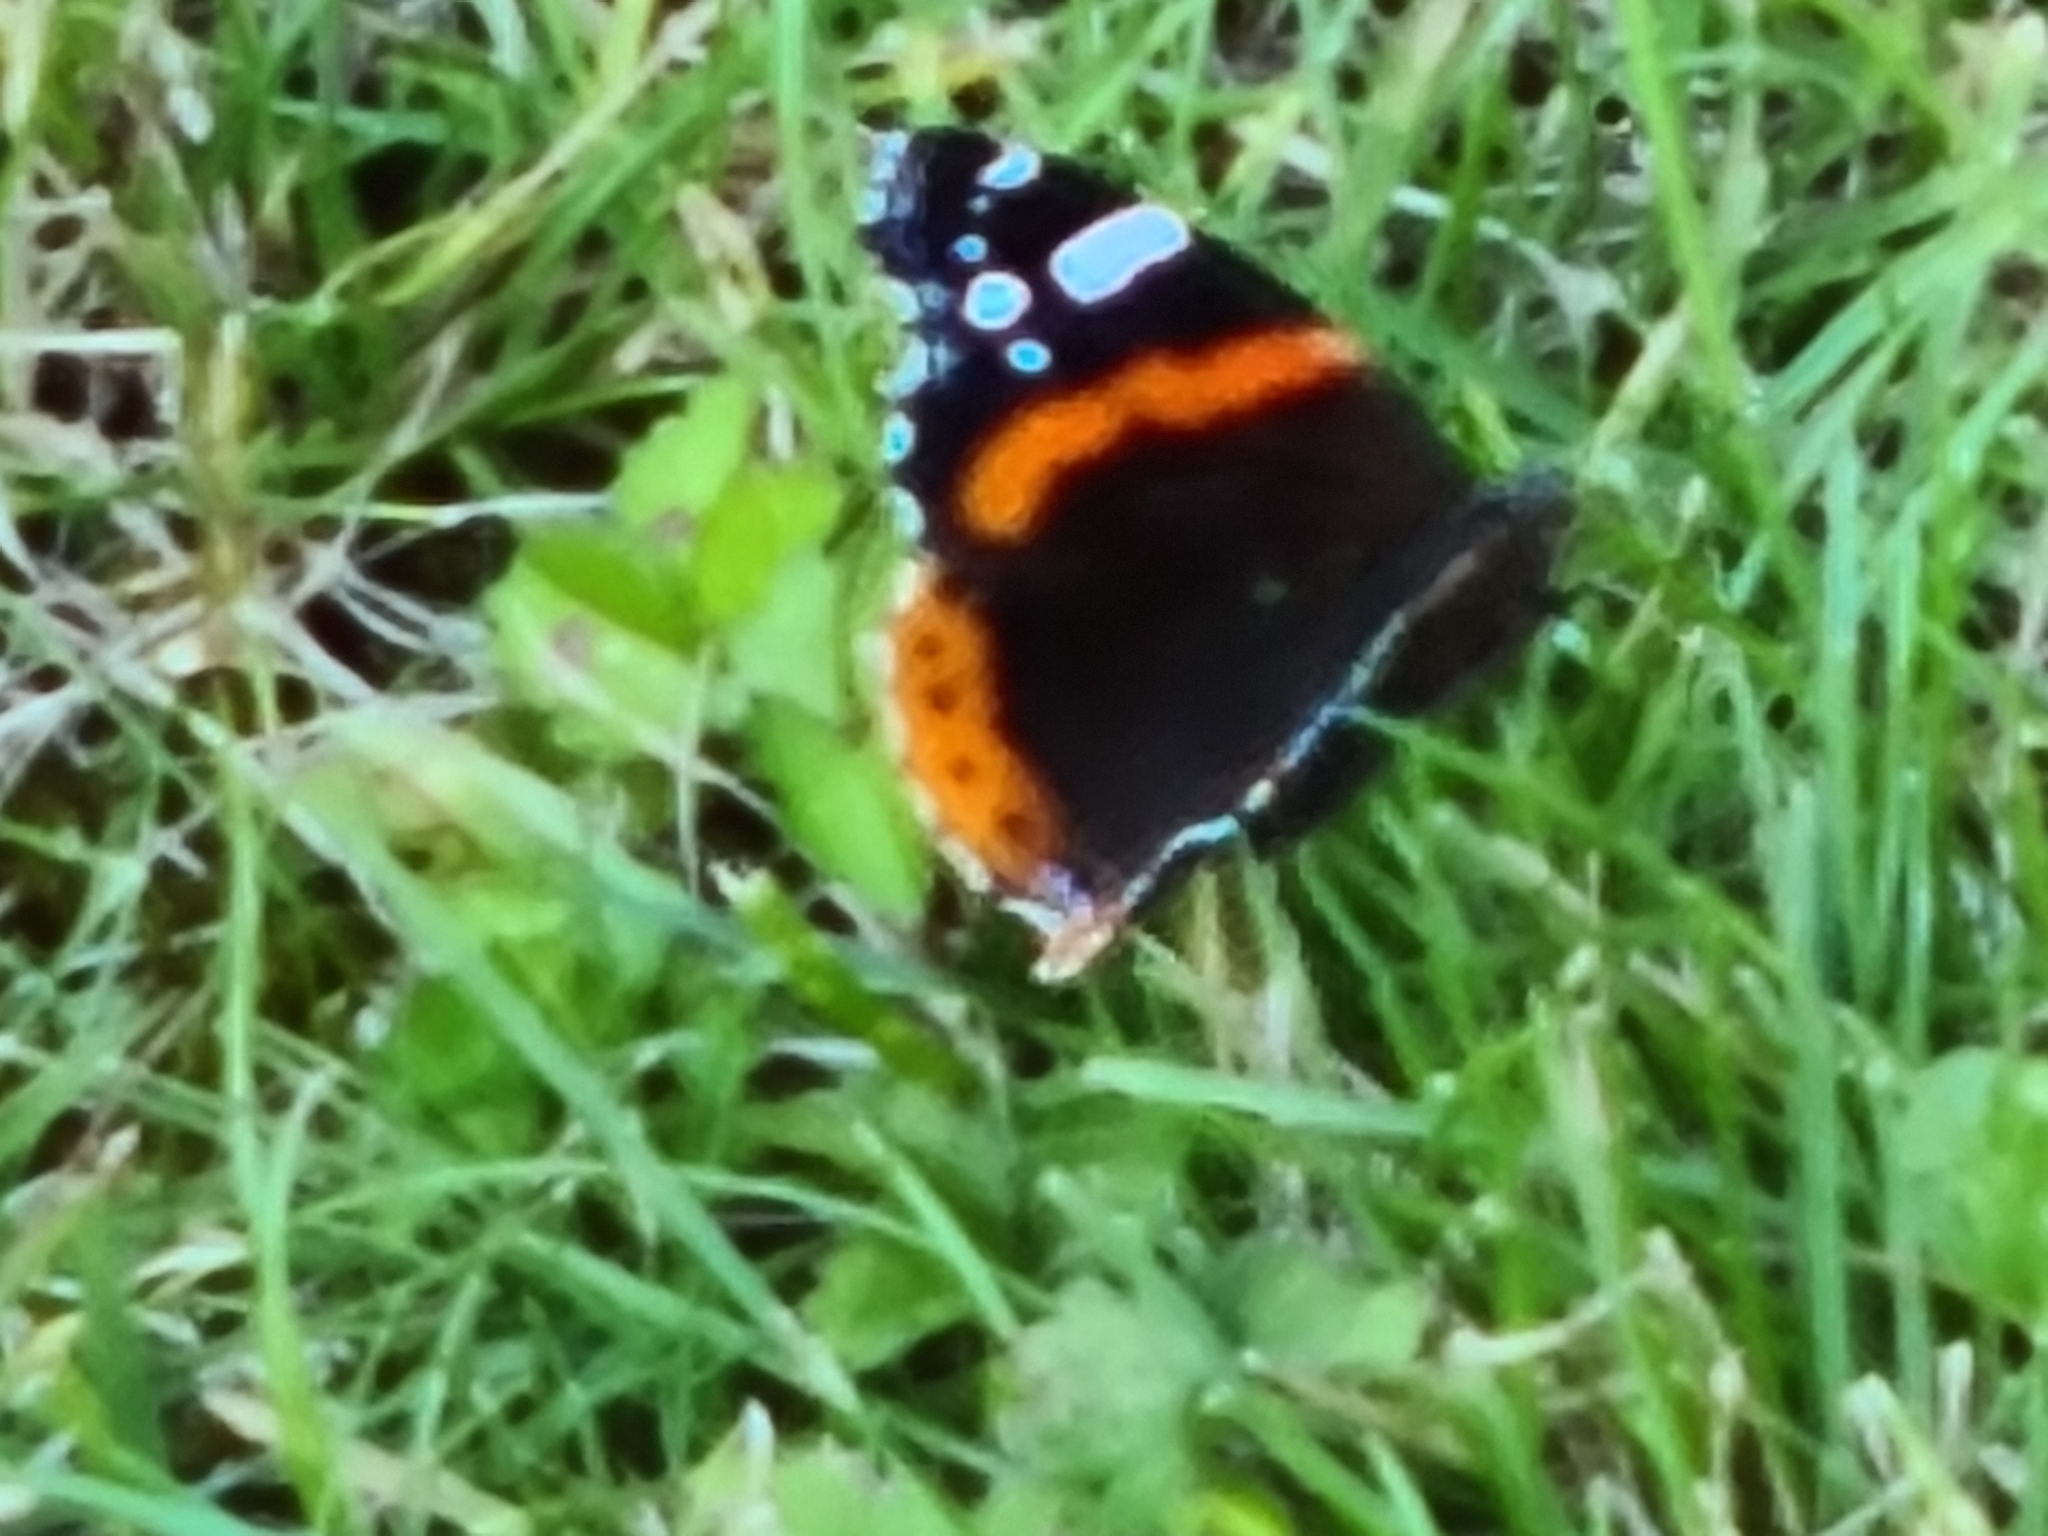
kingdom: Animalia
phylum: Arthropoda
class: Insecta
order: Lepidoptera
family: Nymphalidae
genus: Vanessa
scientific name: Vanessa atalanta
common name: Red admiral
